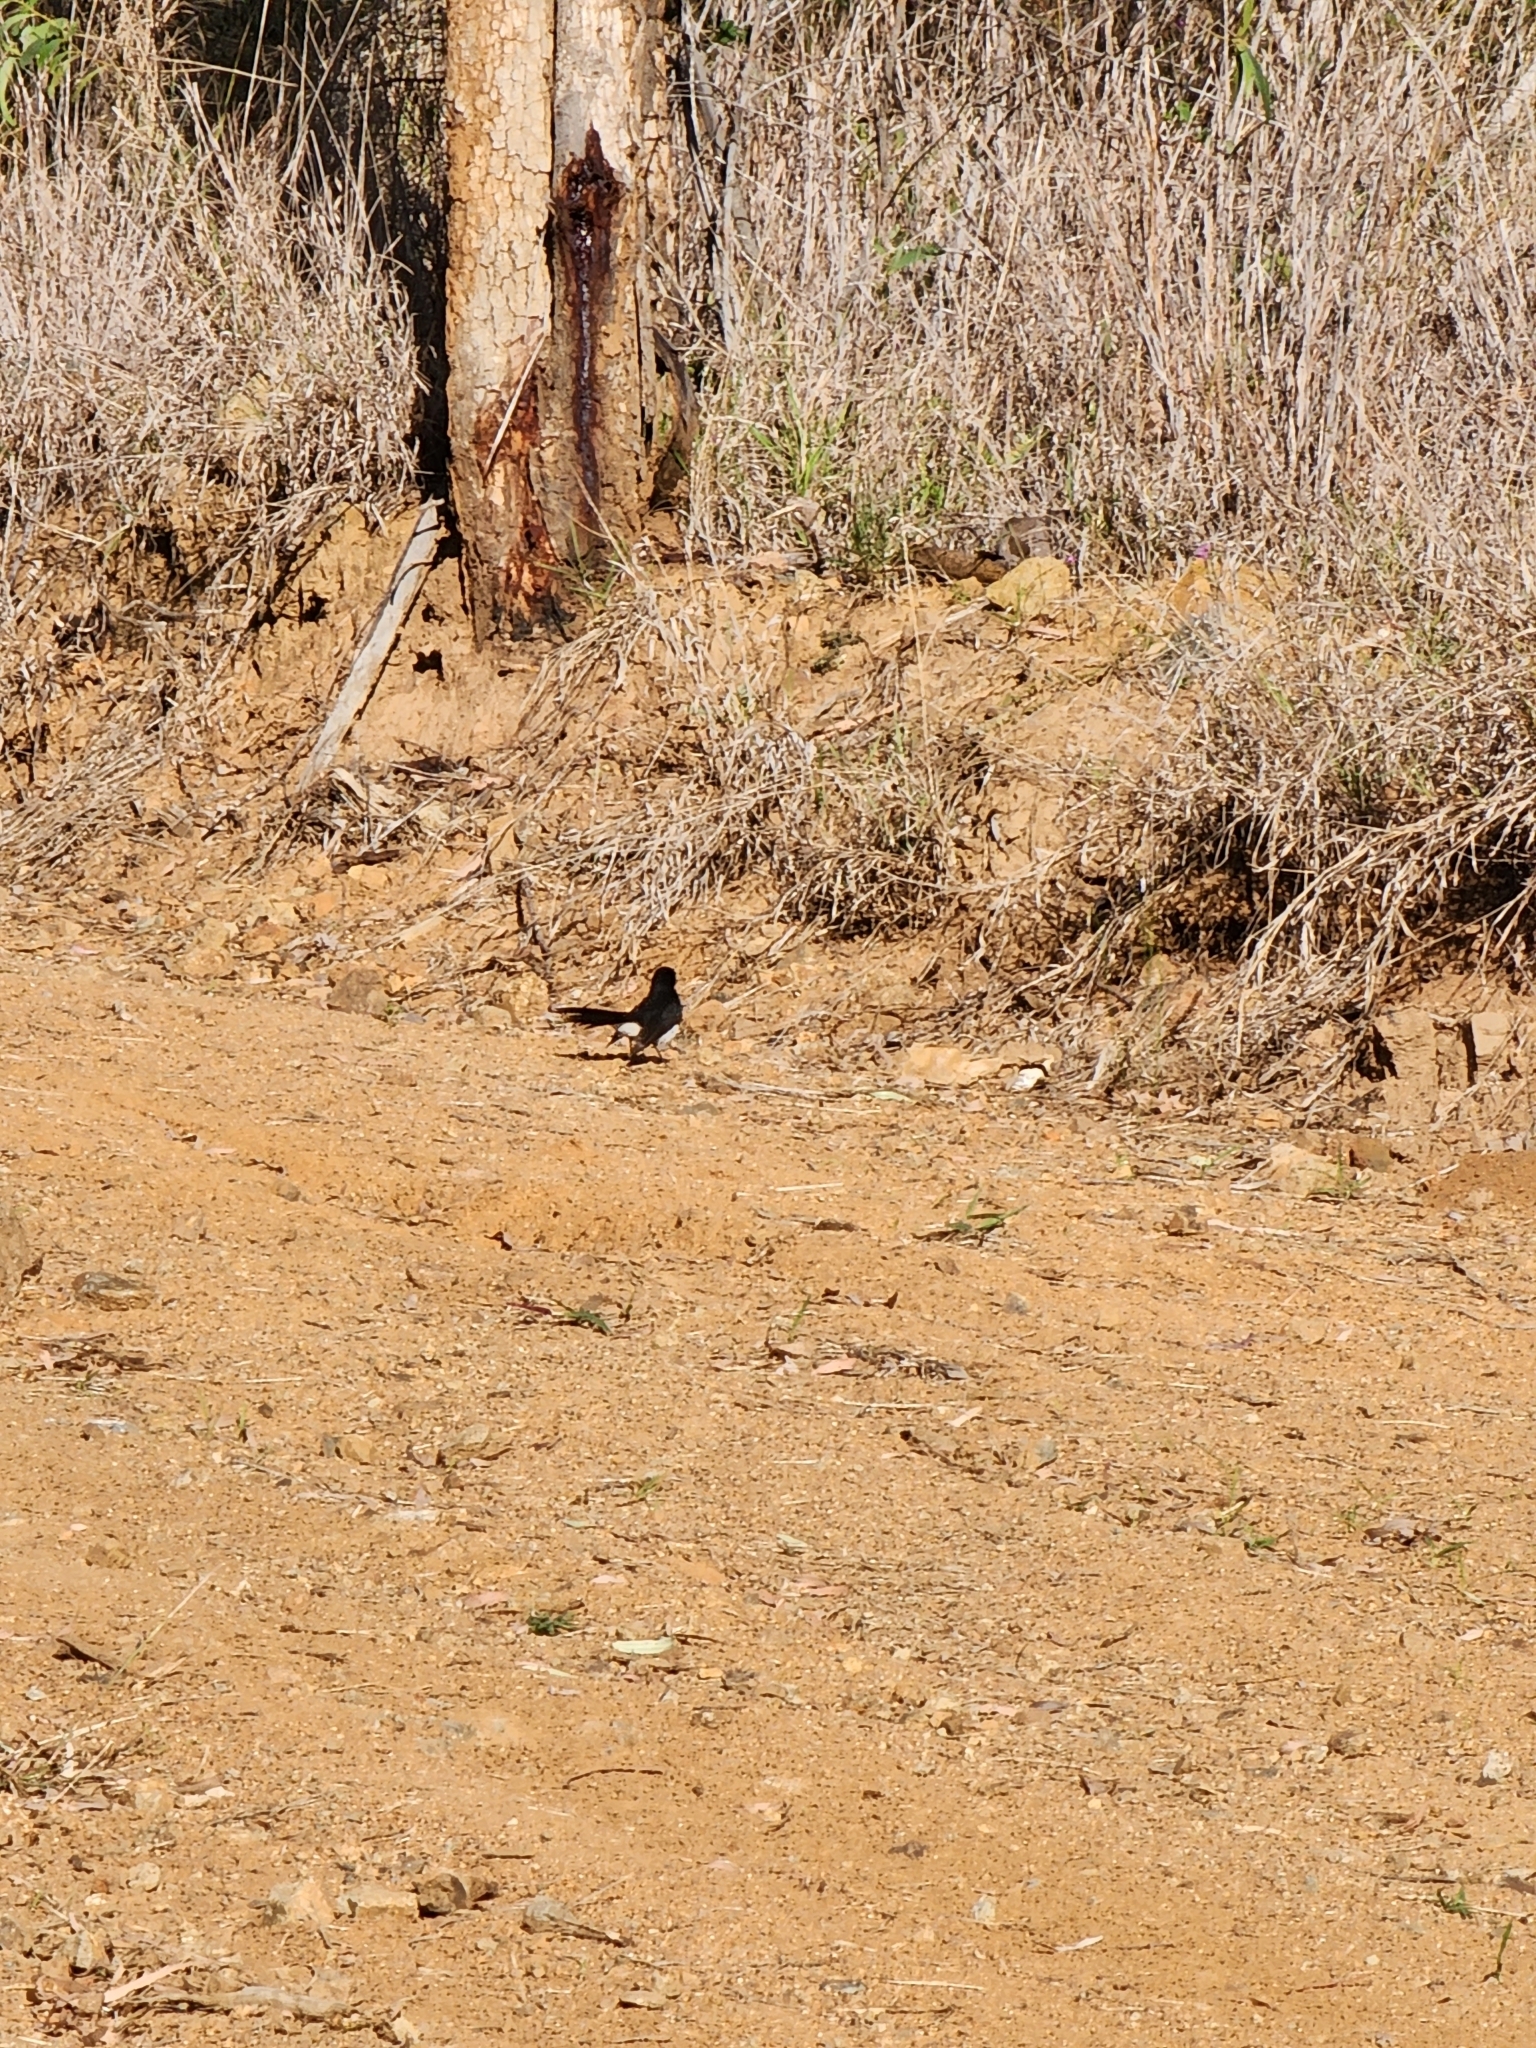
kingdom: Animalia
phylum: Chordata
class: Aves
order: Passeriformes
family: Rhipiduridae
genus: Rhipidura
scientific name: Rhipidura leucophrys
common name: Willie wagtail
